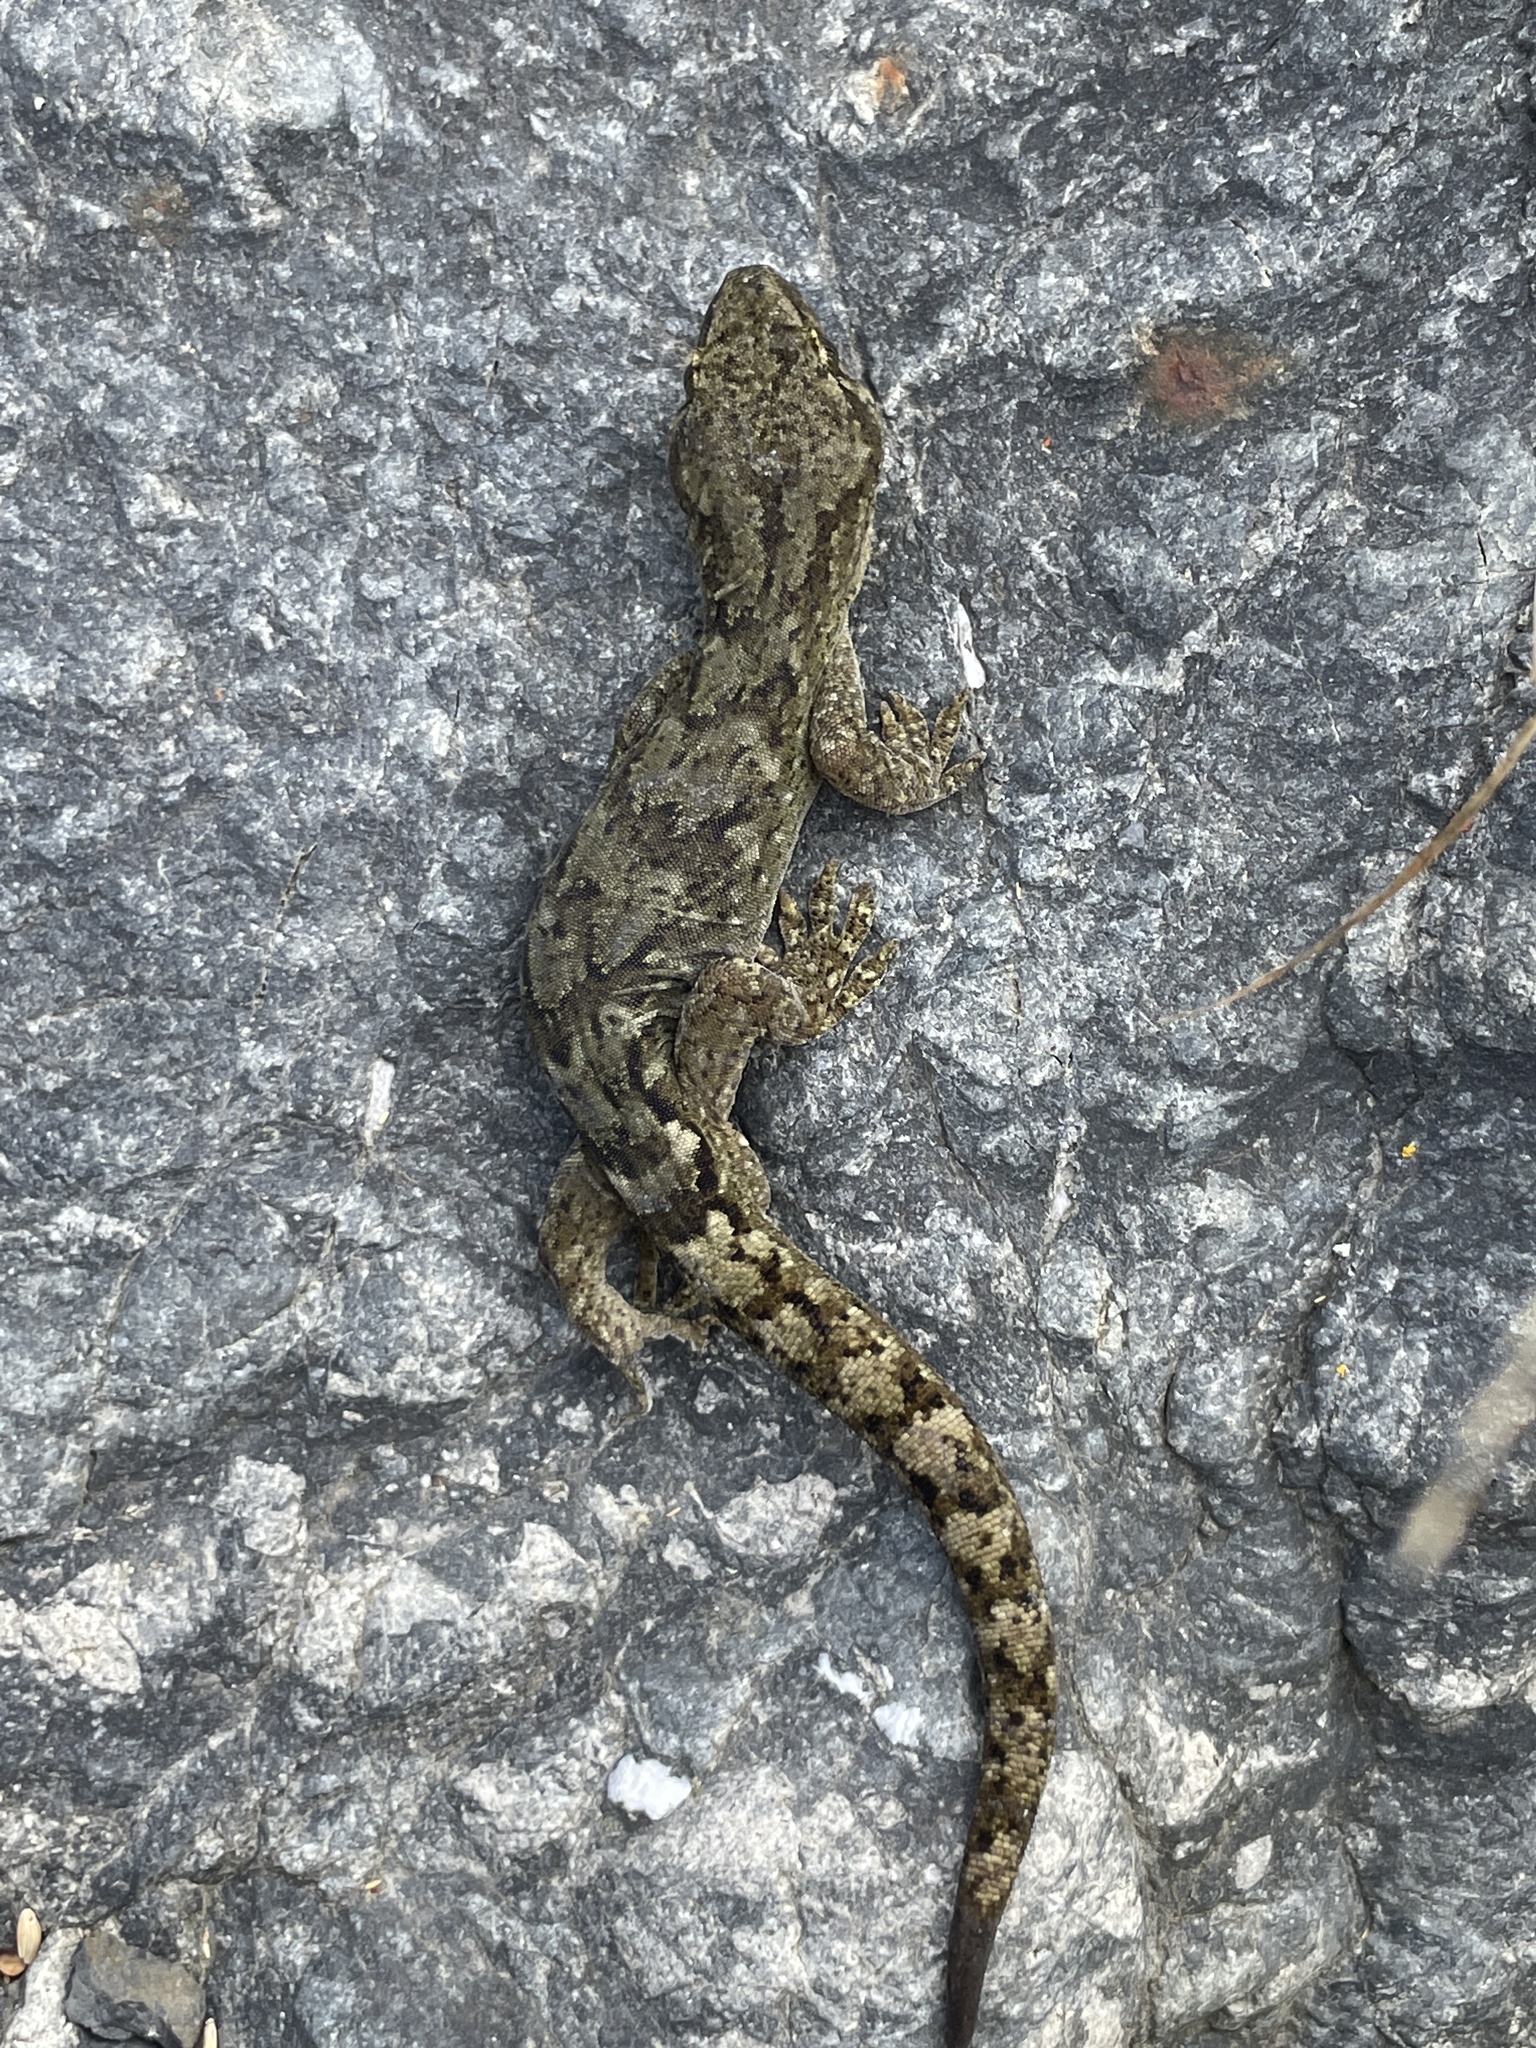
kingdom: Animalia
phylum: Chordata
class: Squamata
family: Diplodactylidae
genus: Woodworthia
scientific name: Woodworthia maculata
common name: Raukawa gecko
